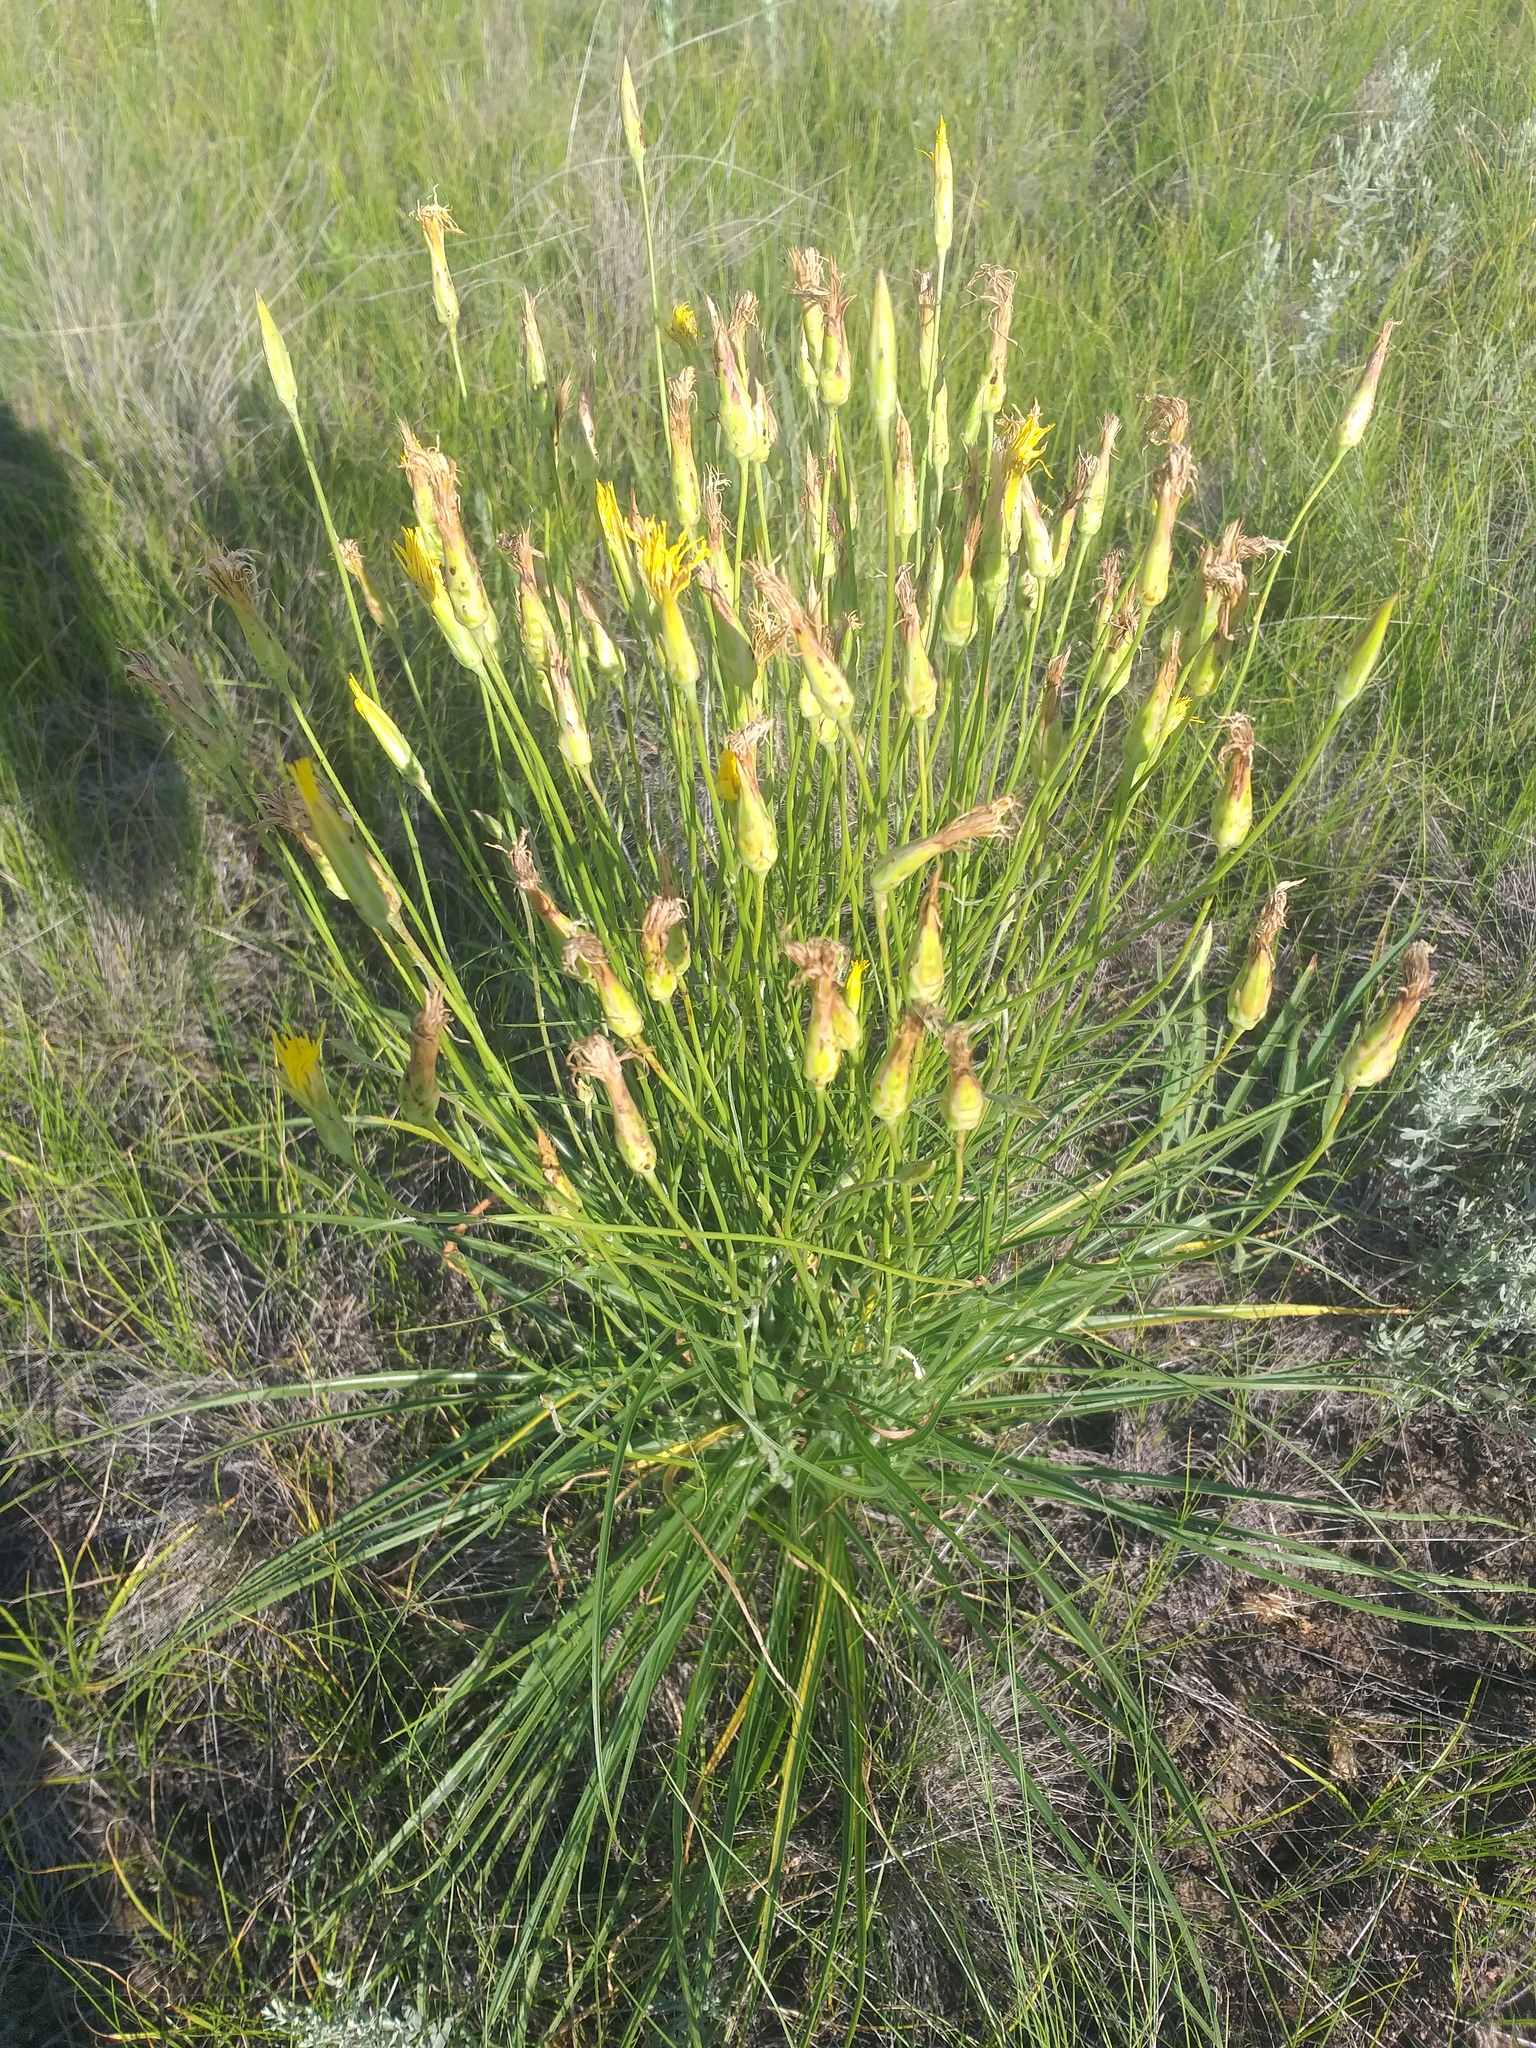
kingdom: Plantae
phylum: Tracheophyta
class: Magnoliopsida
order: Asterales
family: Asteraceae
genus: Pseudopodospermum
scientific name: Pseudopodospermum strictum
